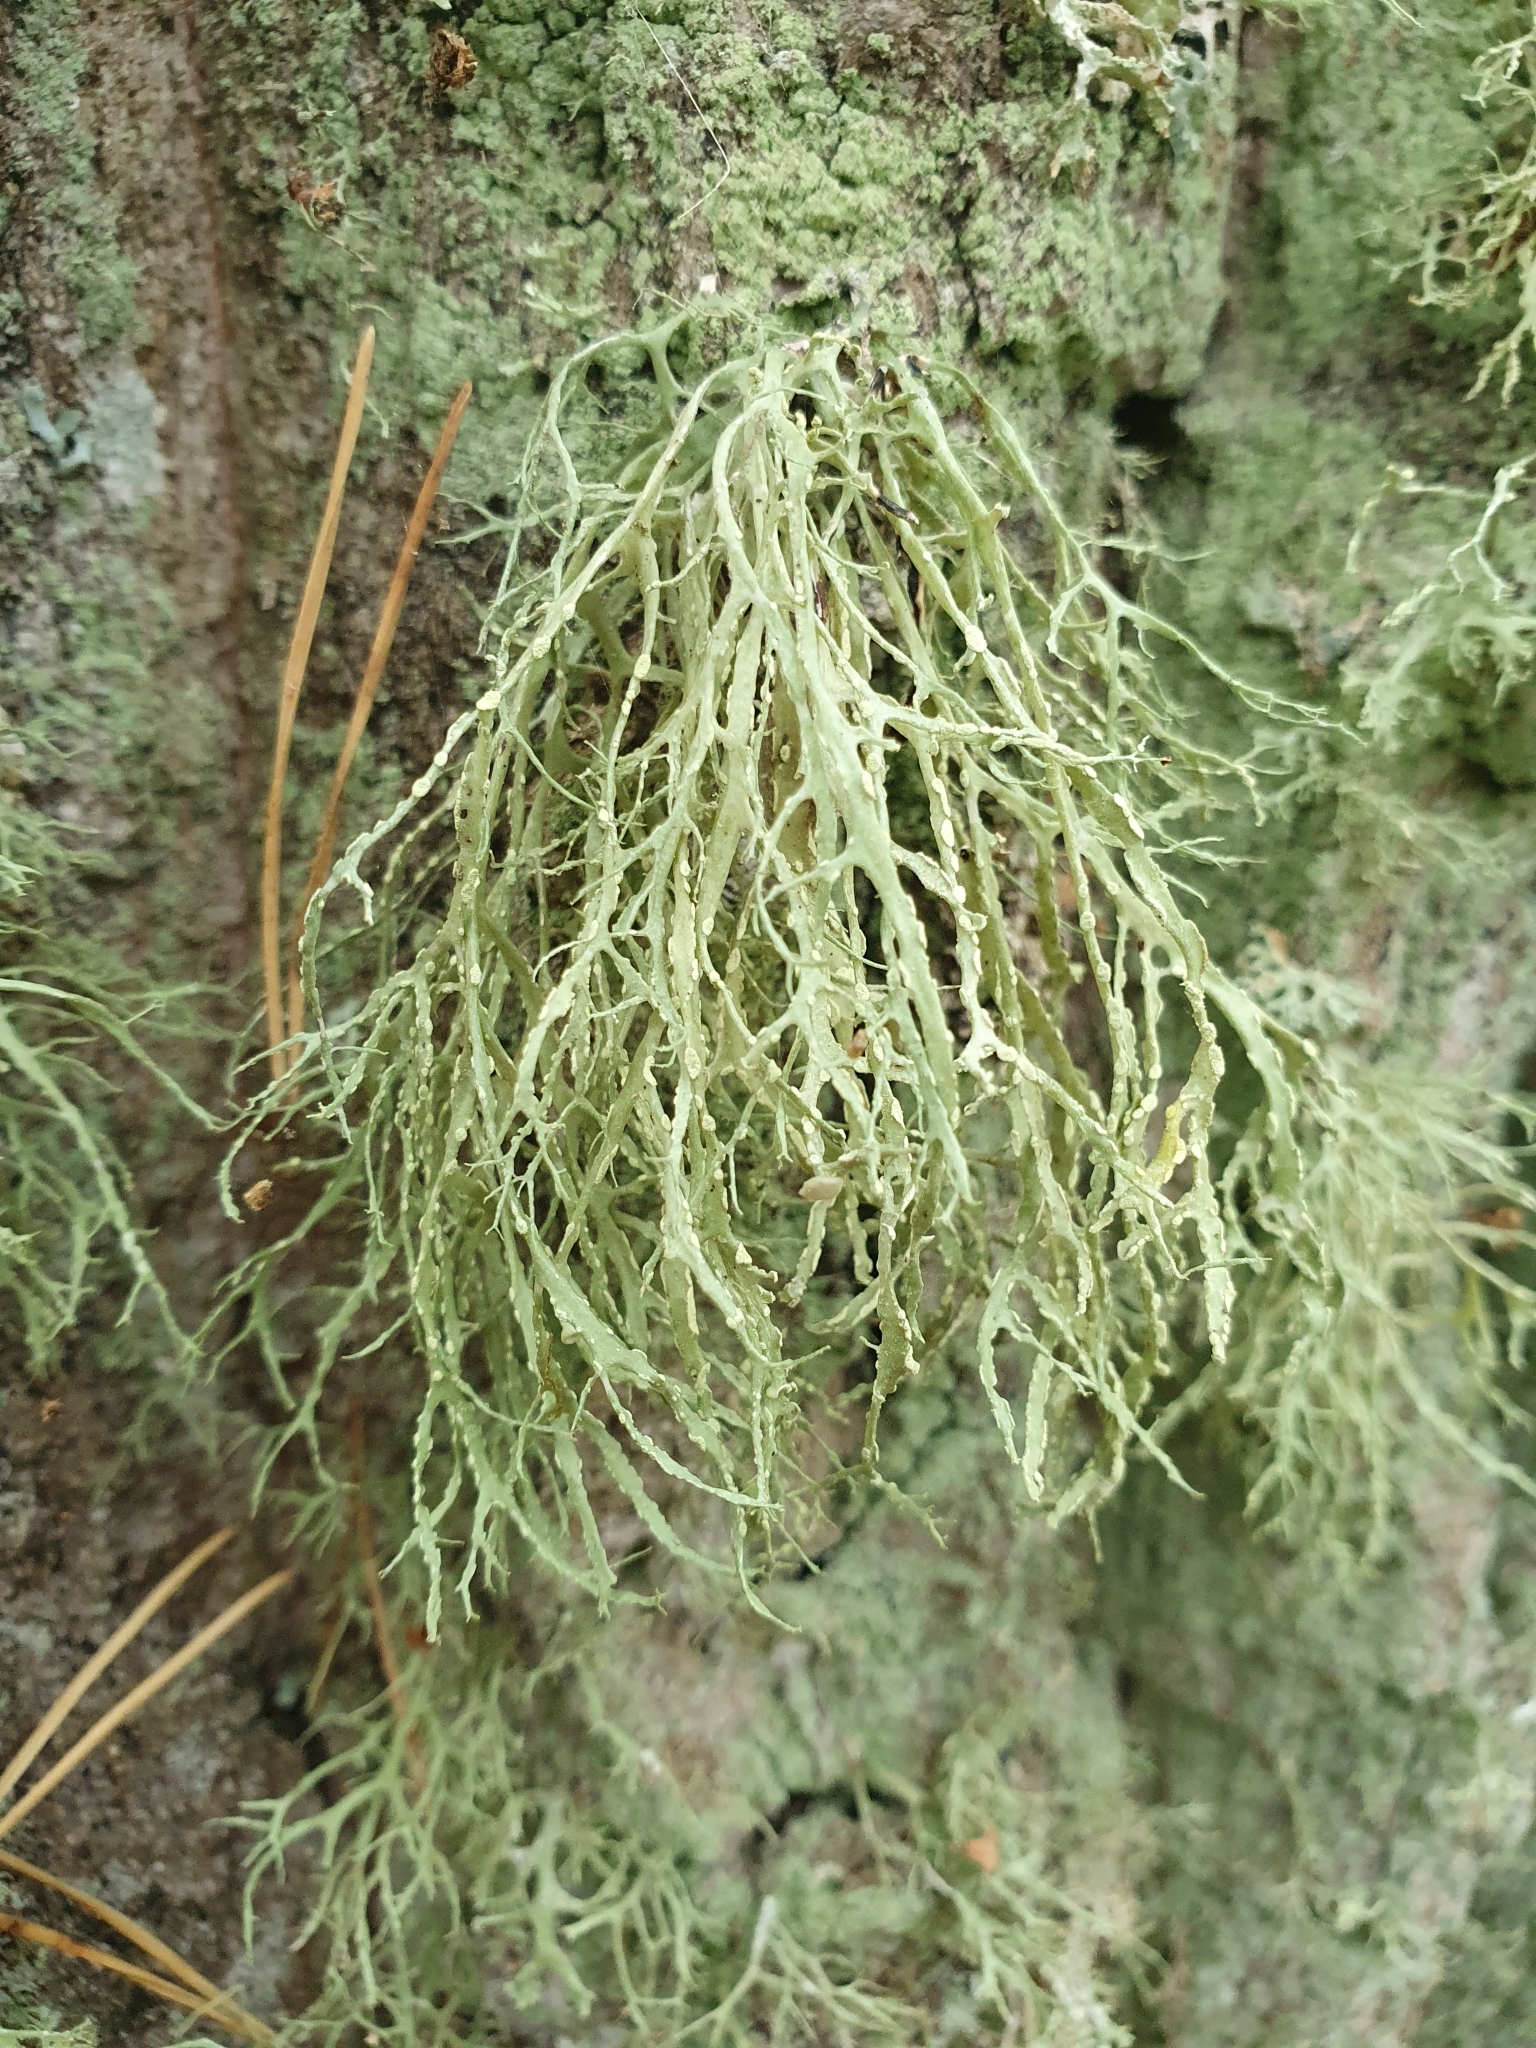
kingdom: Fungi
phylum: Ascomycota
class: Lecanoromycetes
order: Lecanorales
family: Ramalinaceae
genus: Ramalina
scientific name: Ramalina farinacea
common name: Farinose cartilage lichen
